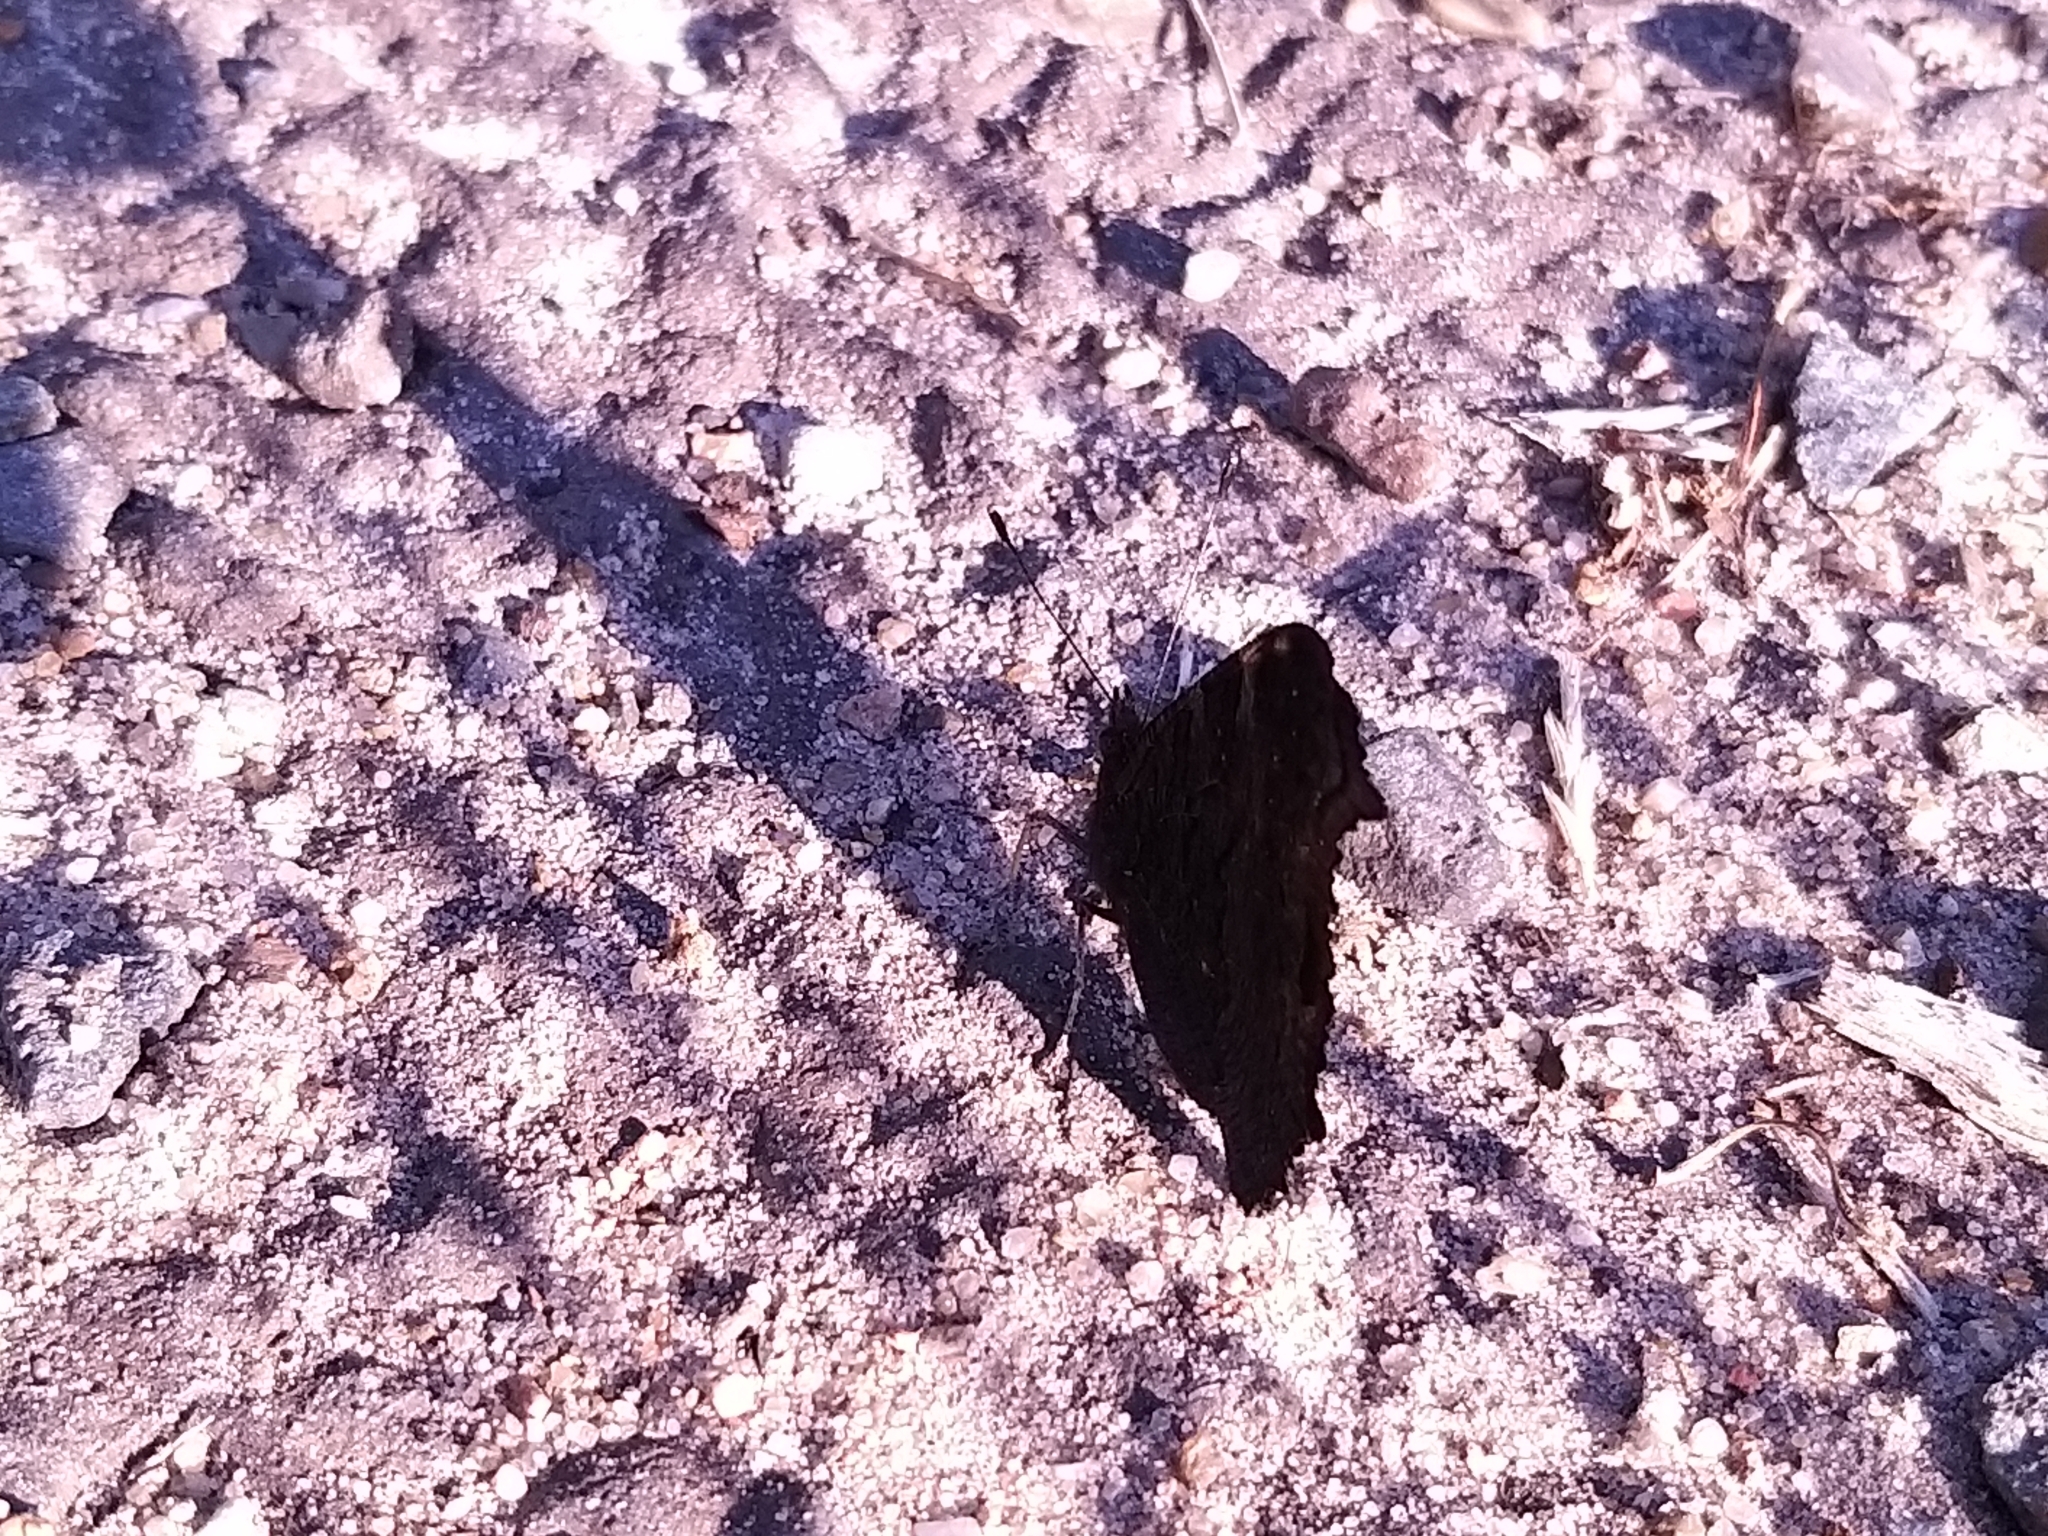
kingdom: Animalia
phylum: Arthropoda
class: Insecta
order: Lepidoptera
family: Nymphalidae
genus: Aglais
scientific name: Aglais io
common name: Peacock
